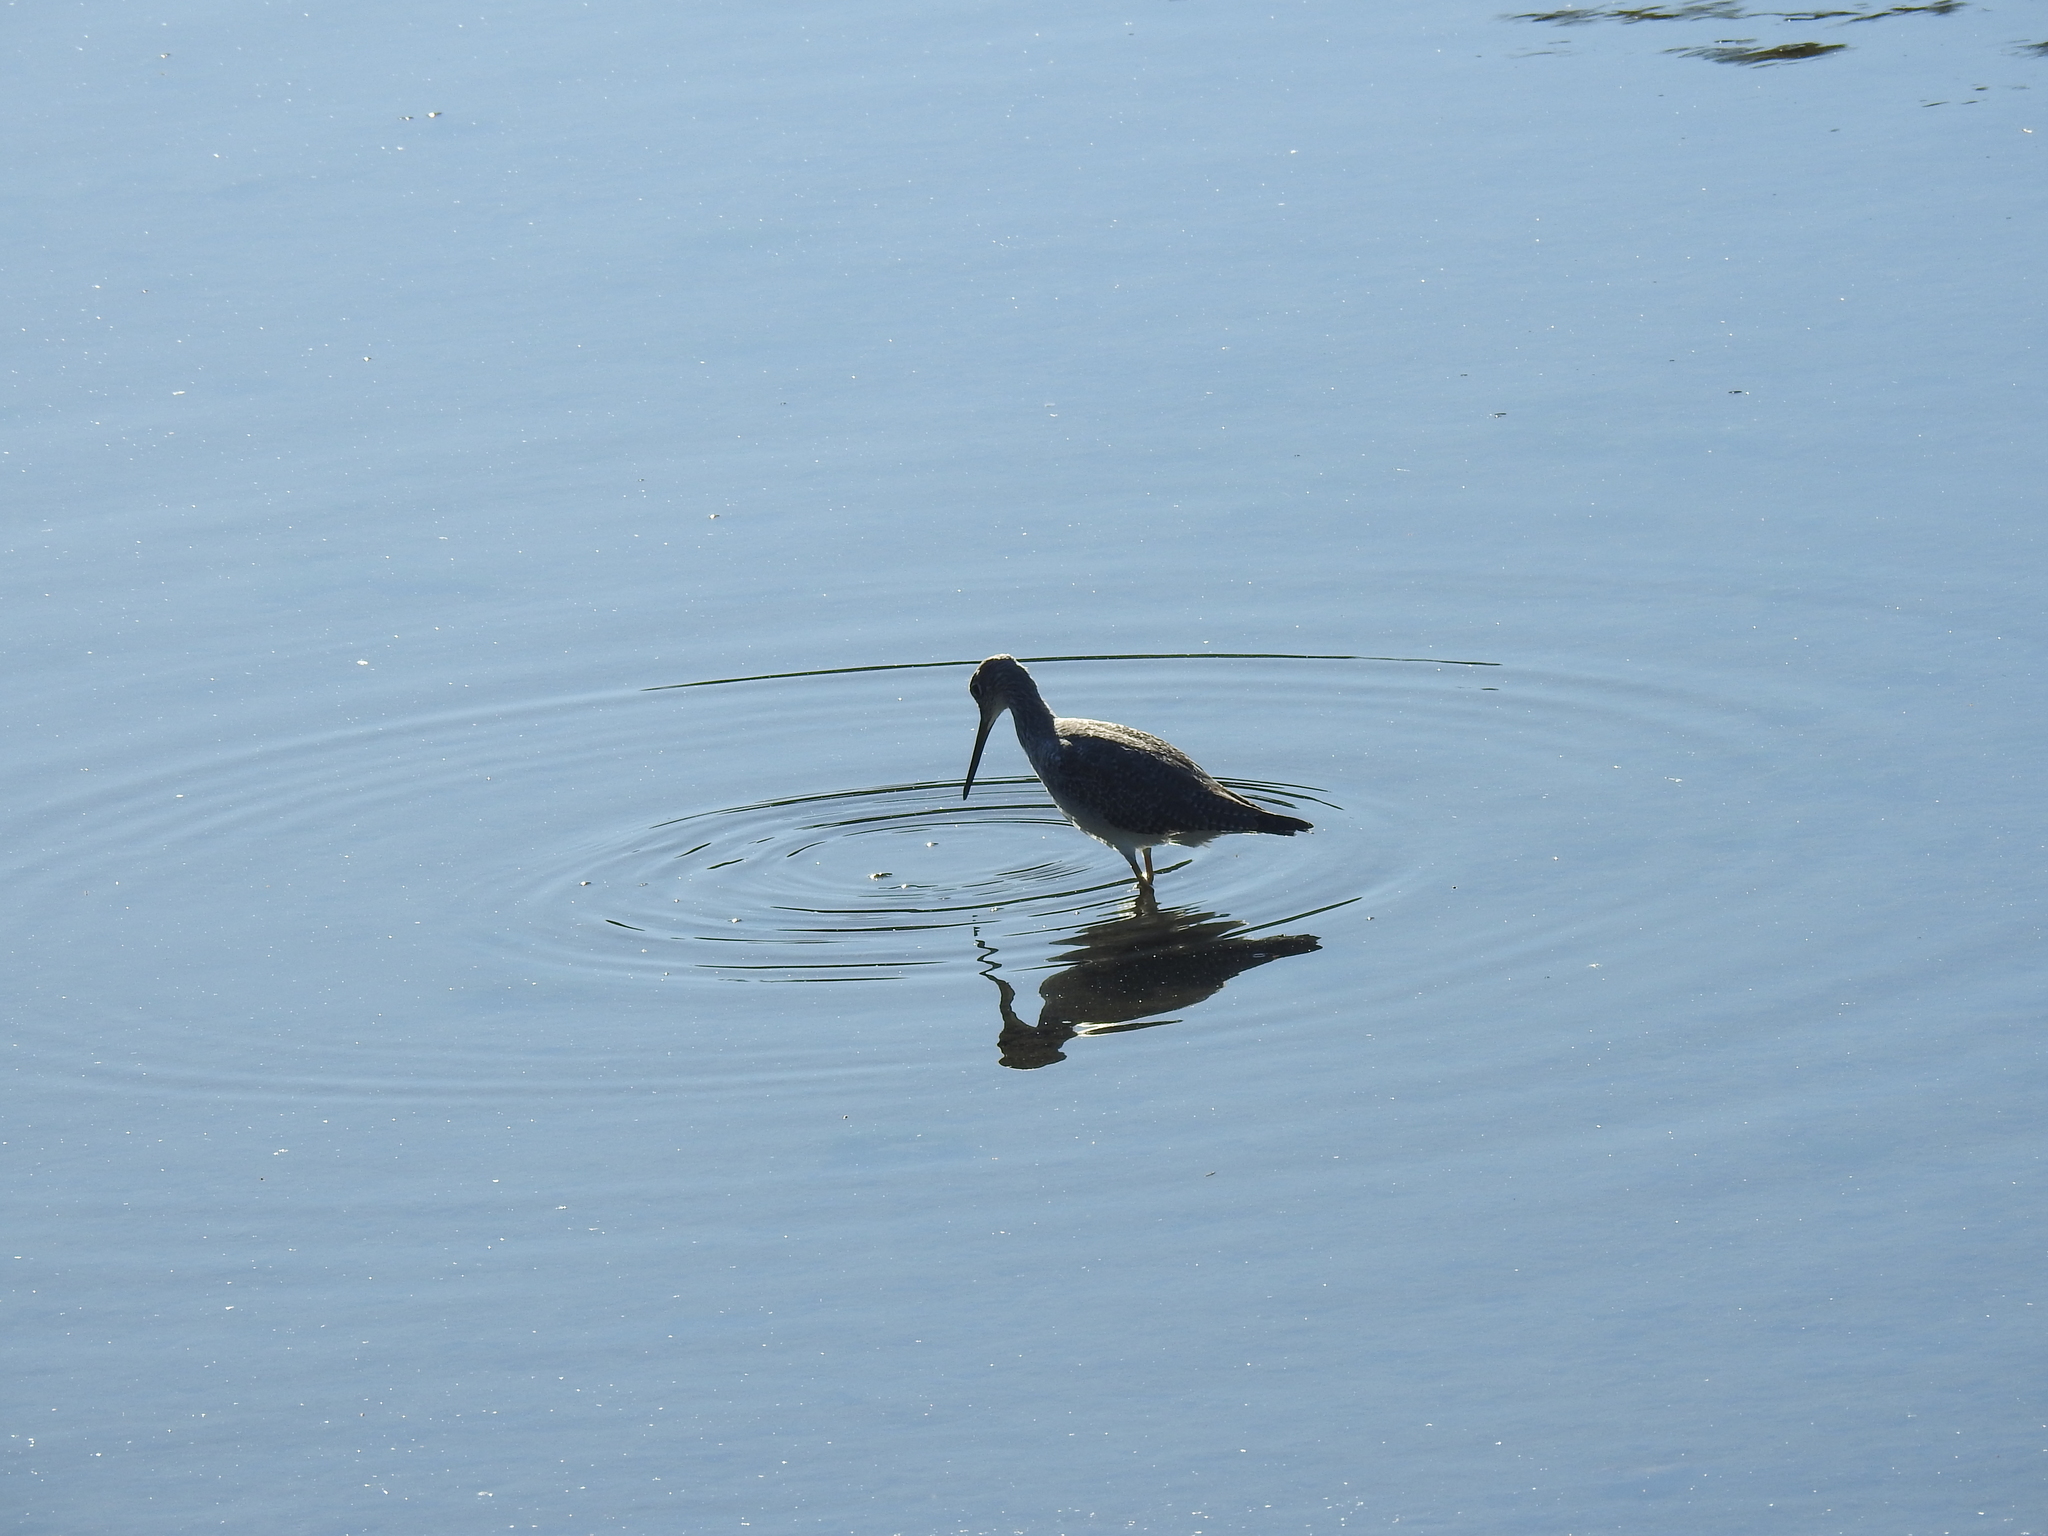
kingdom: Animalia
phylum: Chordata
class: Aves
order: Charadriiformes
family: Scolopacidae
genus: Tringa
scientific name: Tringa semipalmata
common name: Willet
